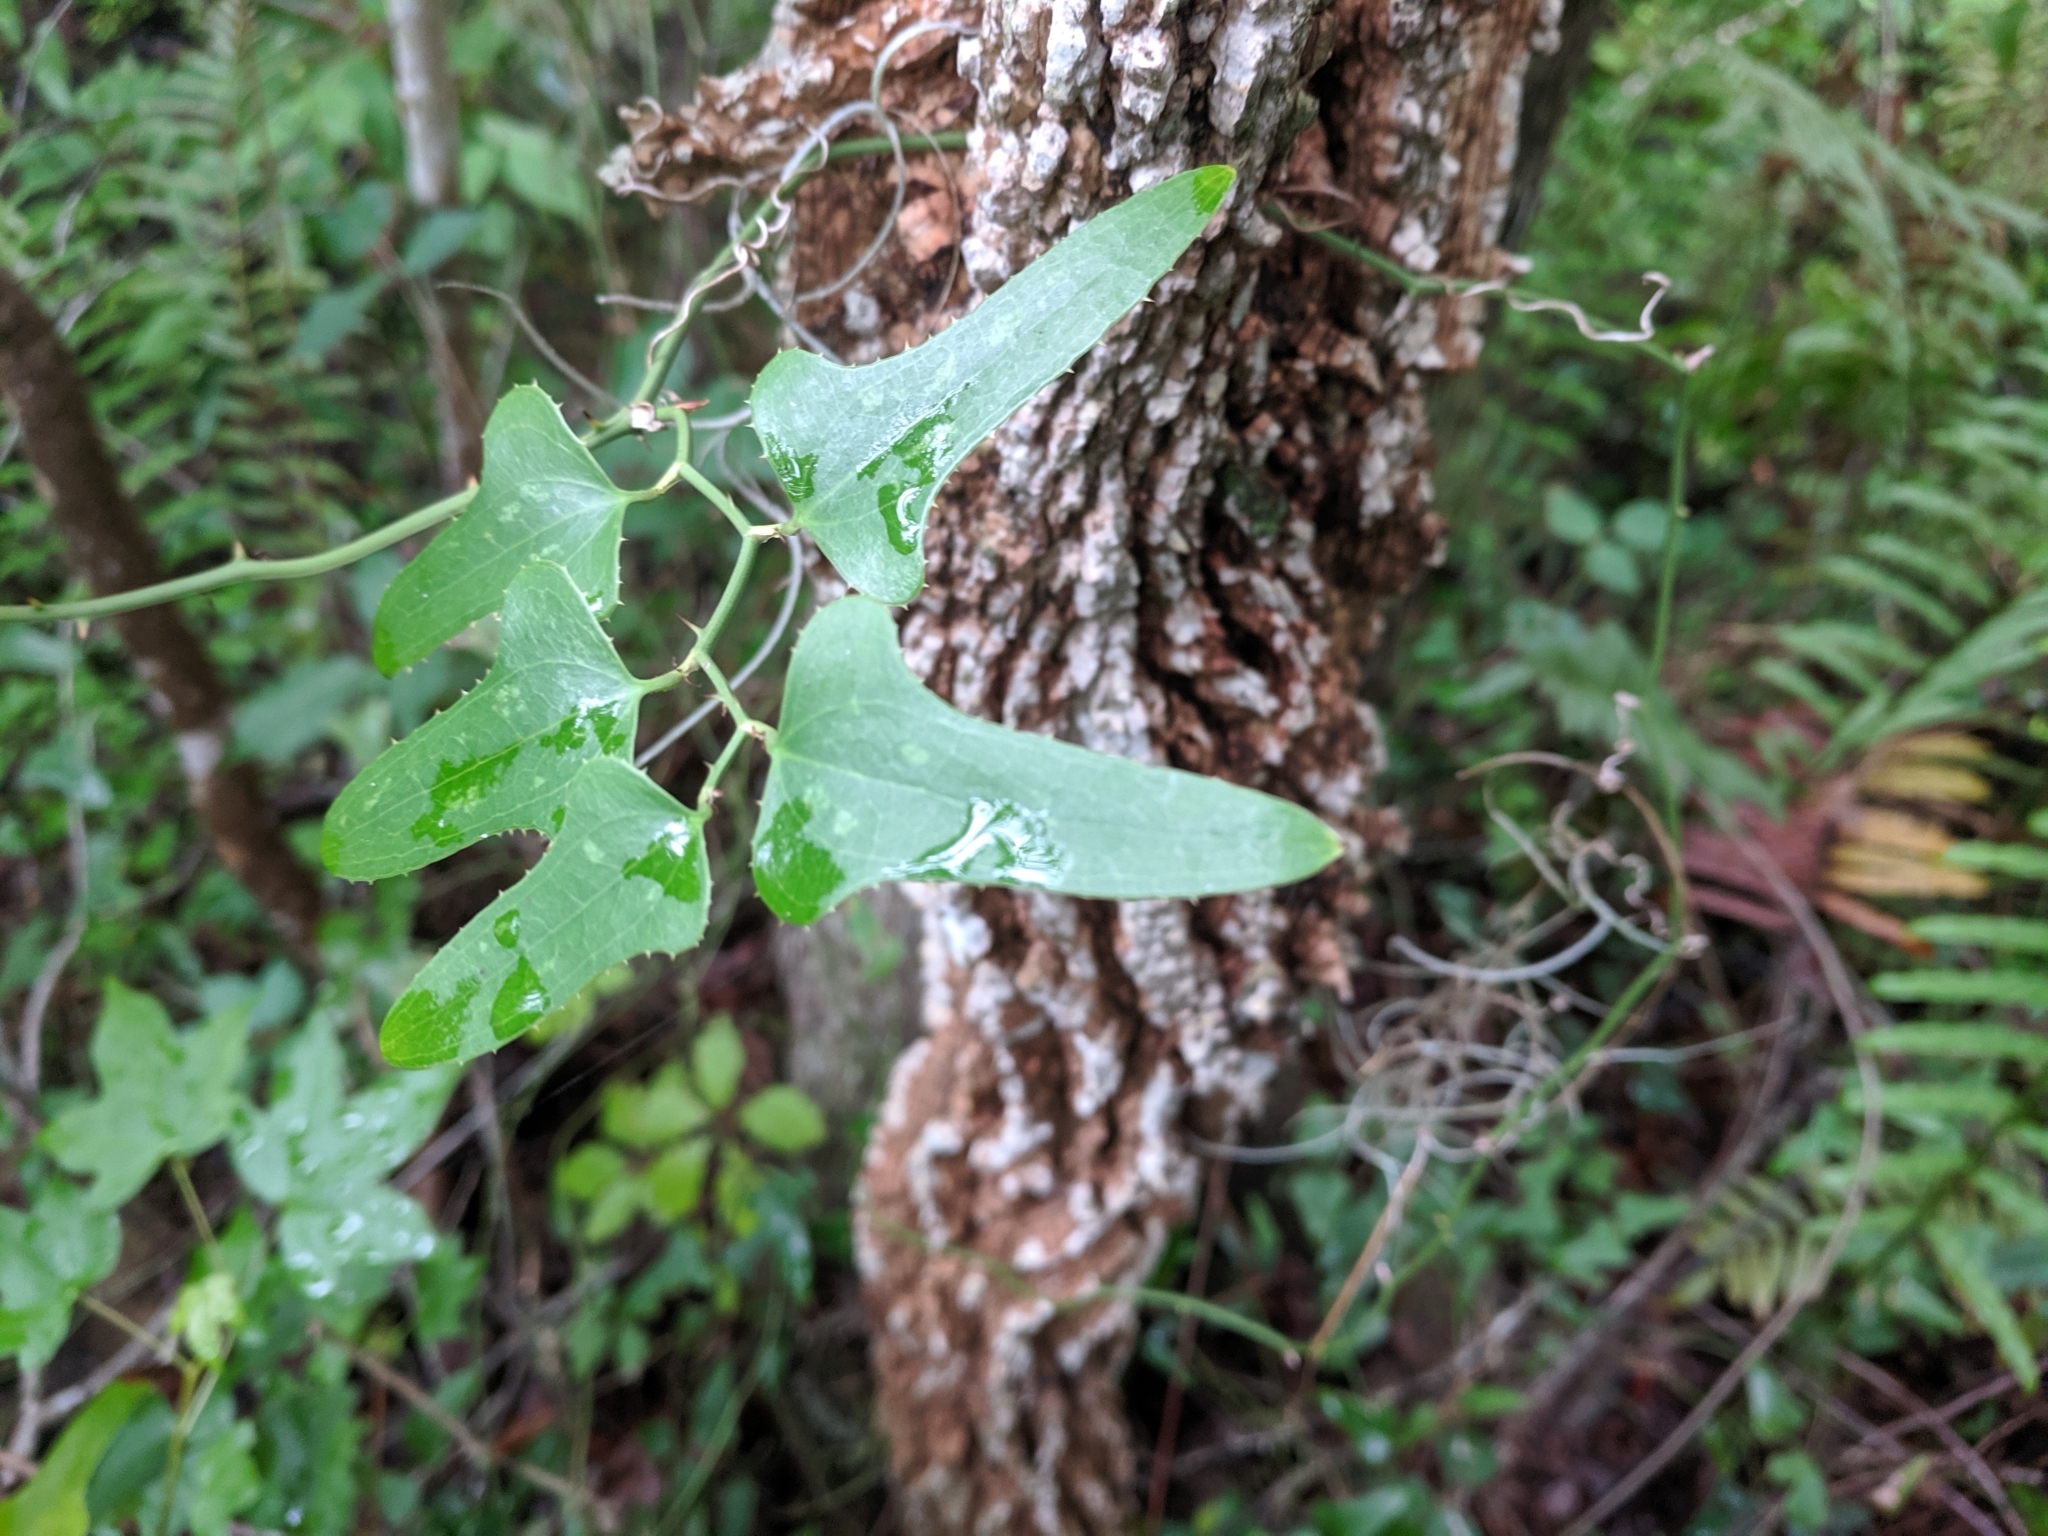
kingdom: Plantae
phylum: Tracheophyta
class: Liliopsida
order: Liliales
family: Smilacaceae
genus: Smilax
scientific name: Smilax bona-nox
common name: Catbrier
